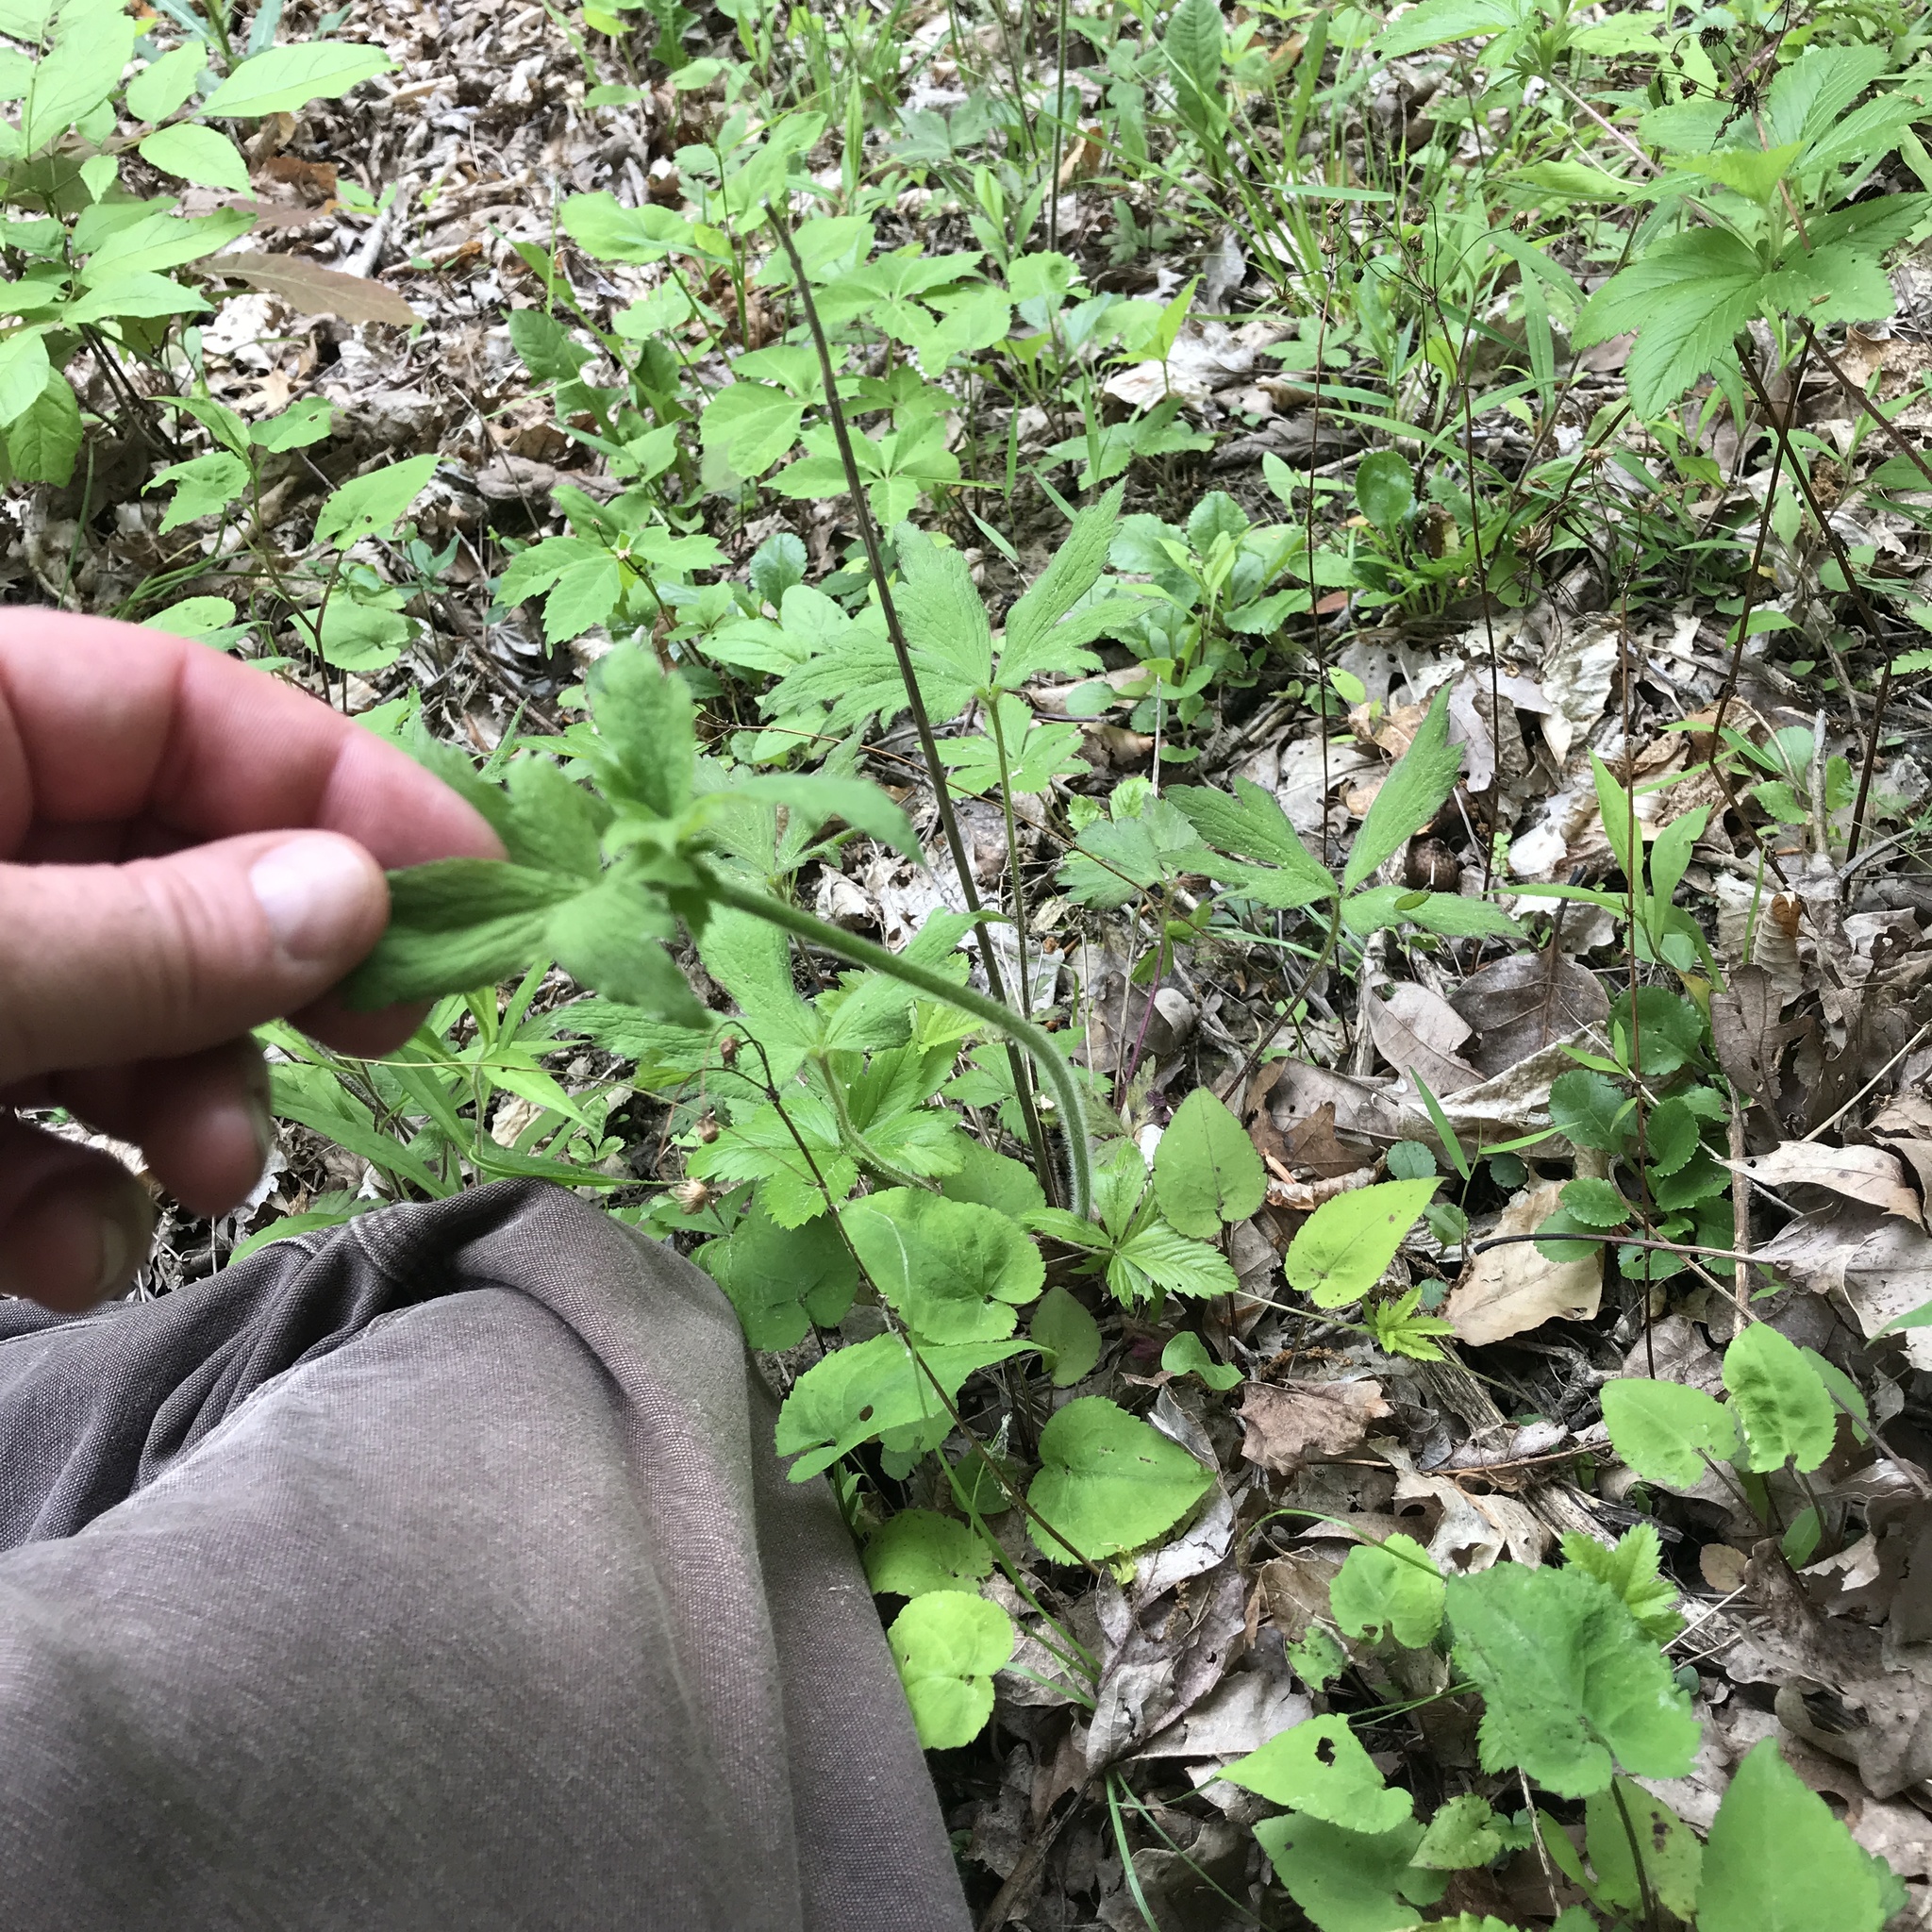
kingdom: Plantae
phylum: Tracheophyta
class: Magnoliopsida
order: Ranunculales
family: Ranunculaceae
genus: Anemone
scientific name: Anemone virginiana
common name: Tall anemone
